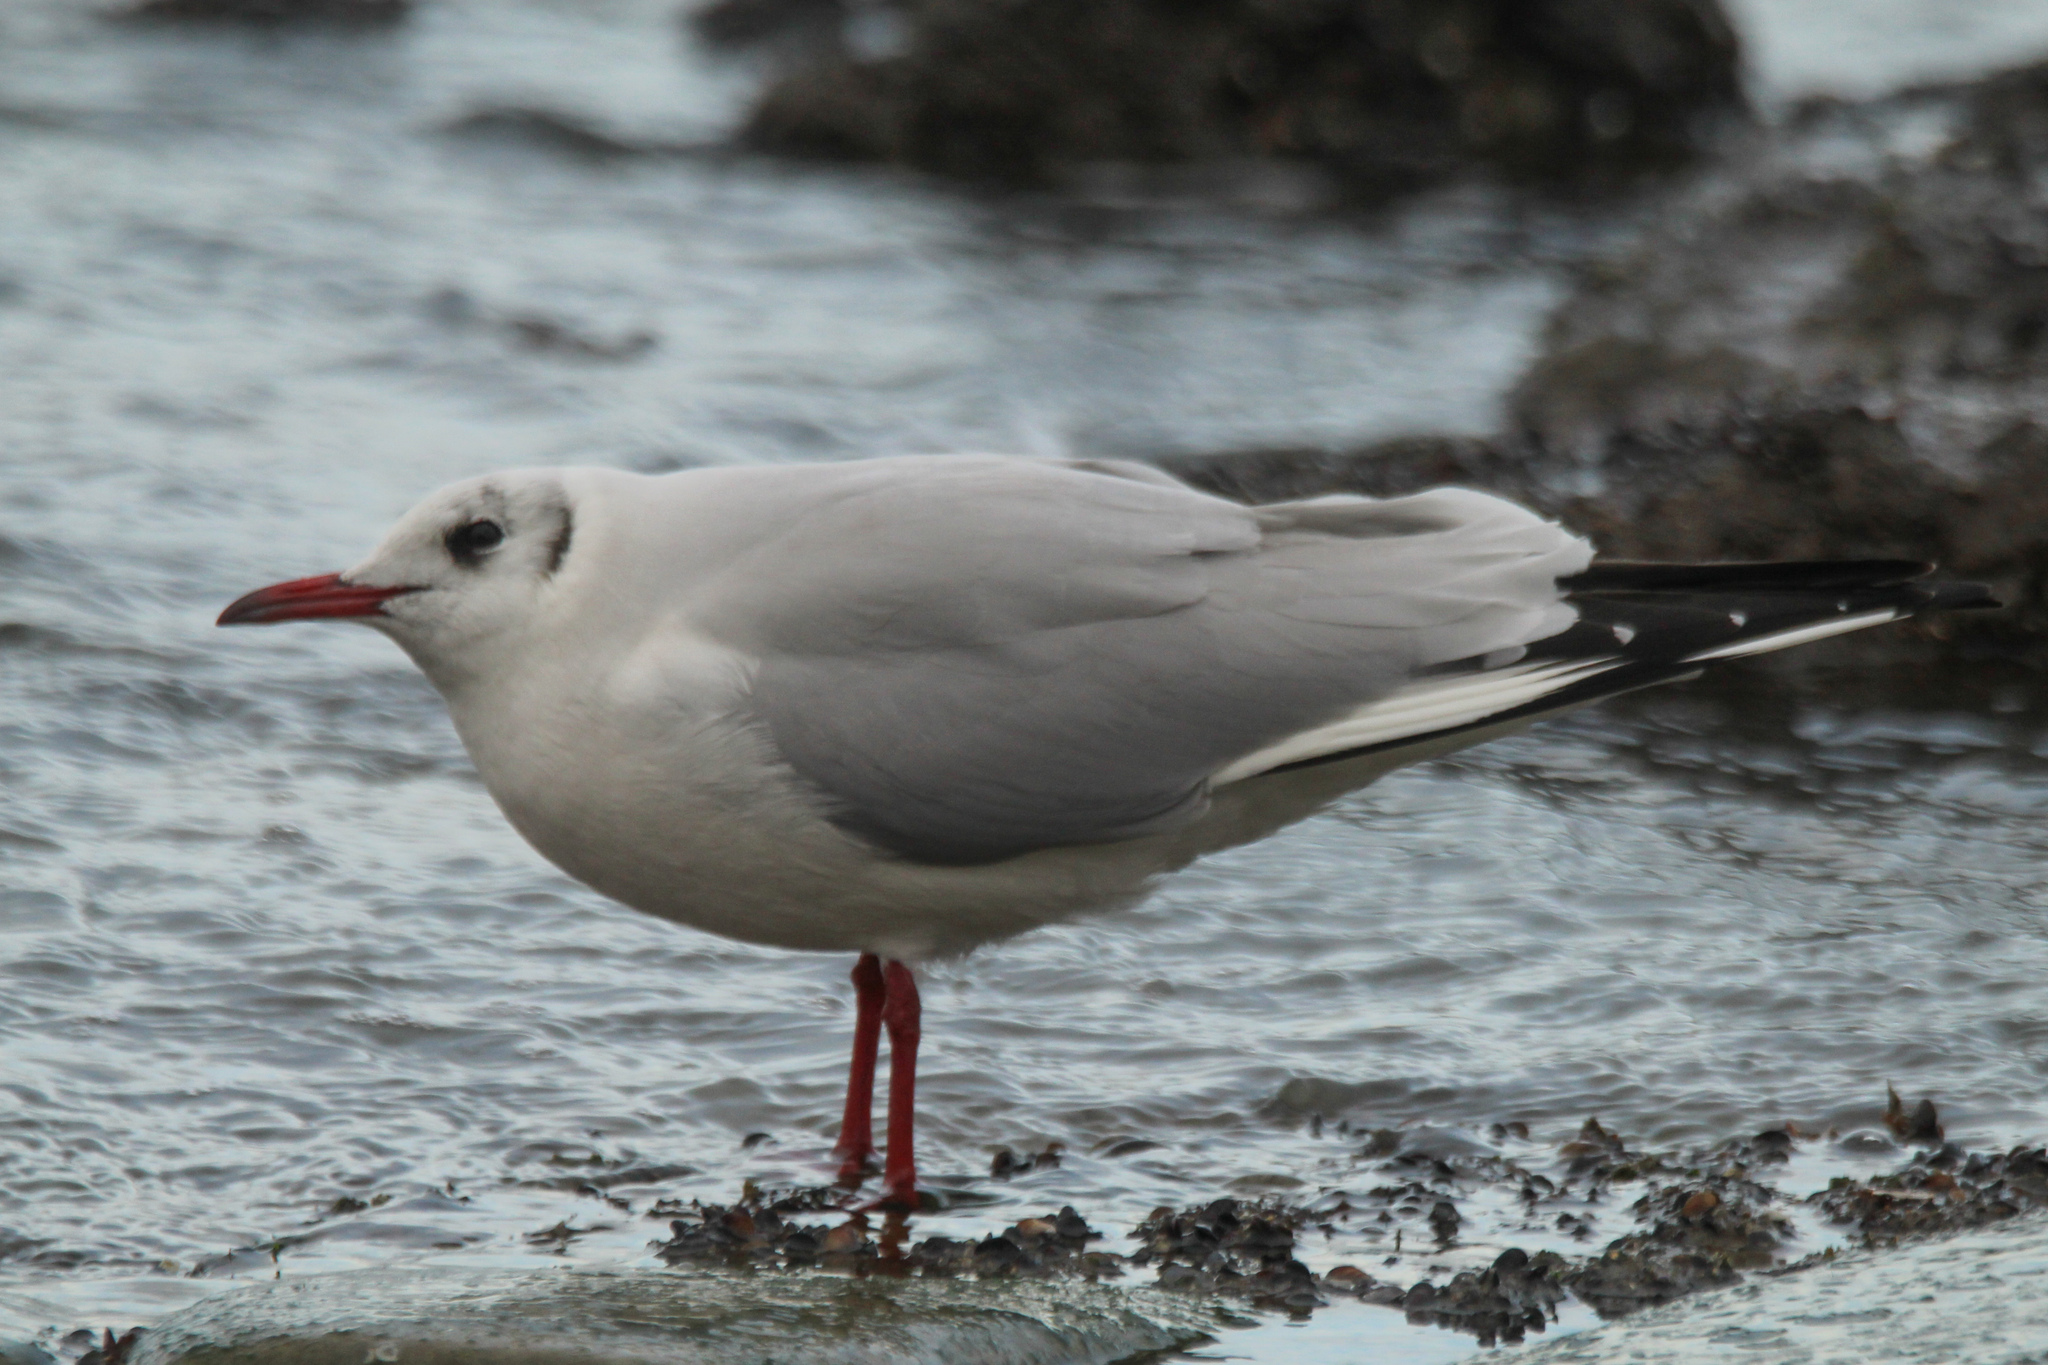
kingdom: Animalia
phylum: Chordata
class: Aves
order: Charadriiformes
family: Laridae
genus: Chroicocephalus
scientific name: Chroicocephalus ridibundus
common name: Black-headed gull
